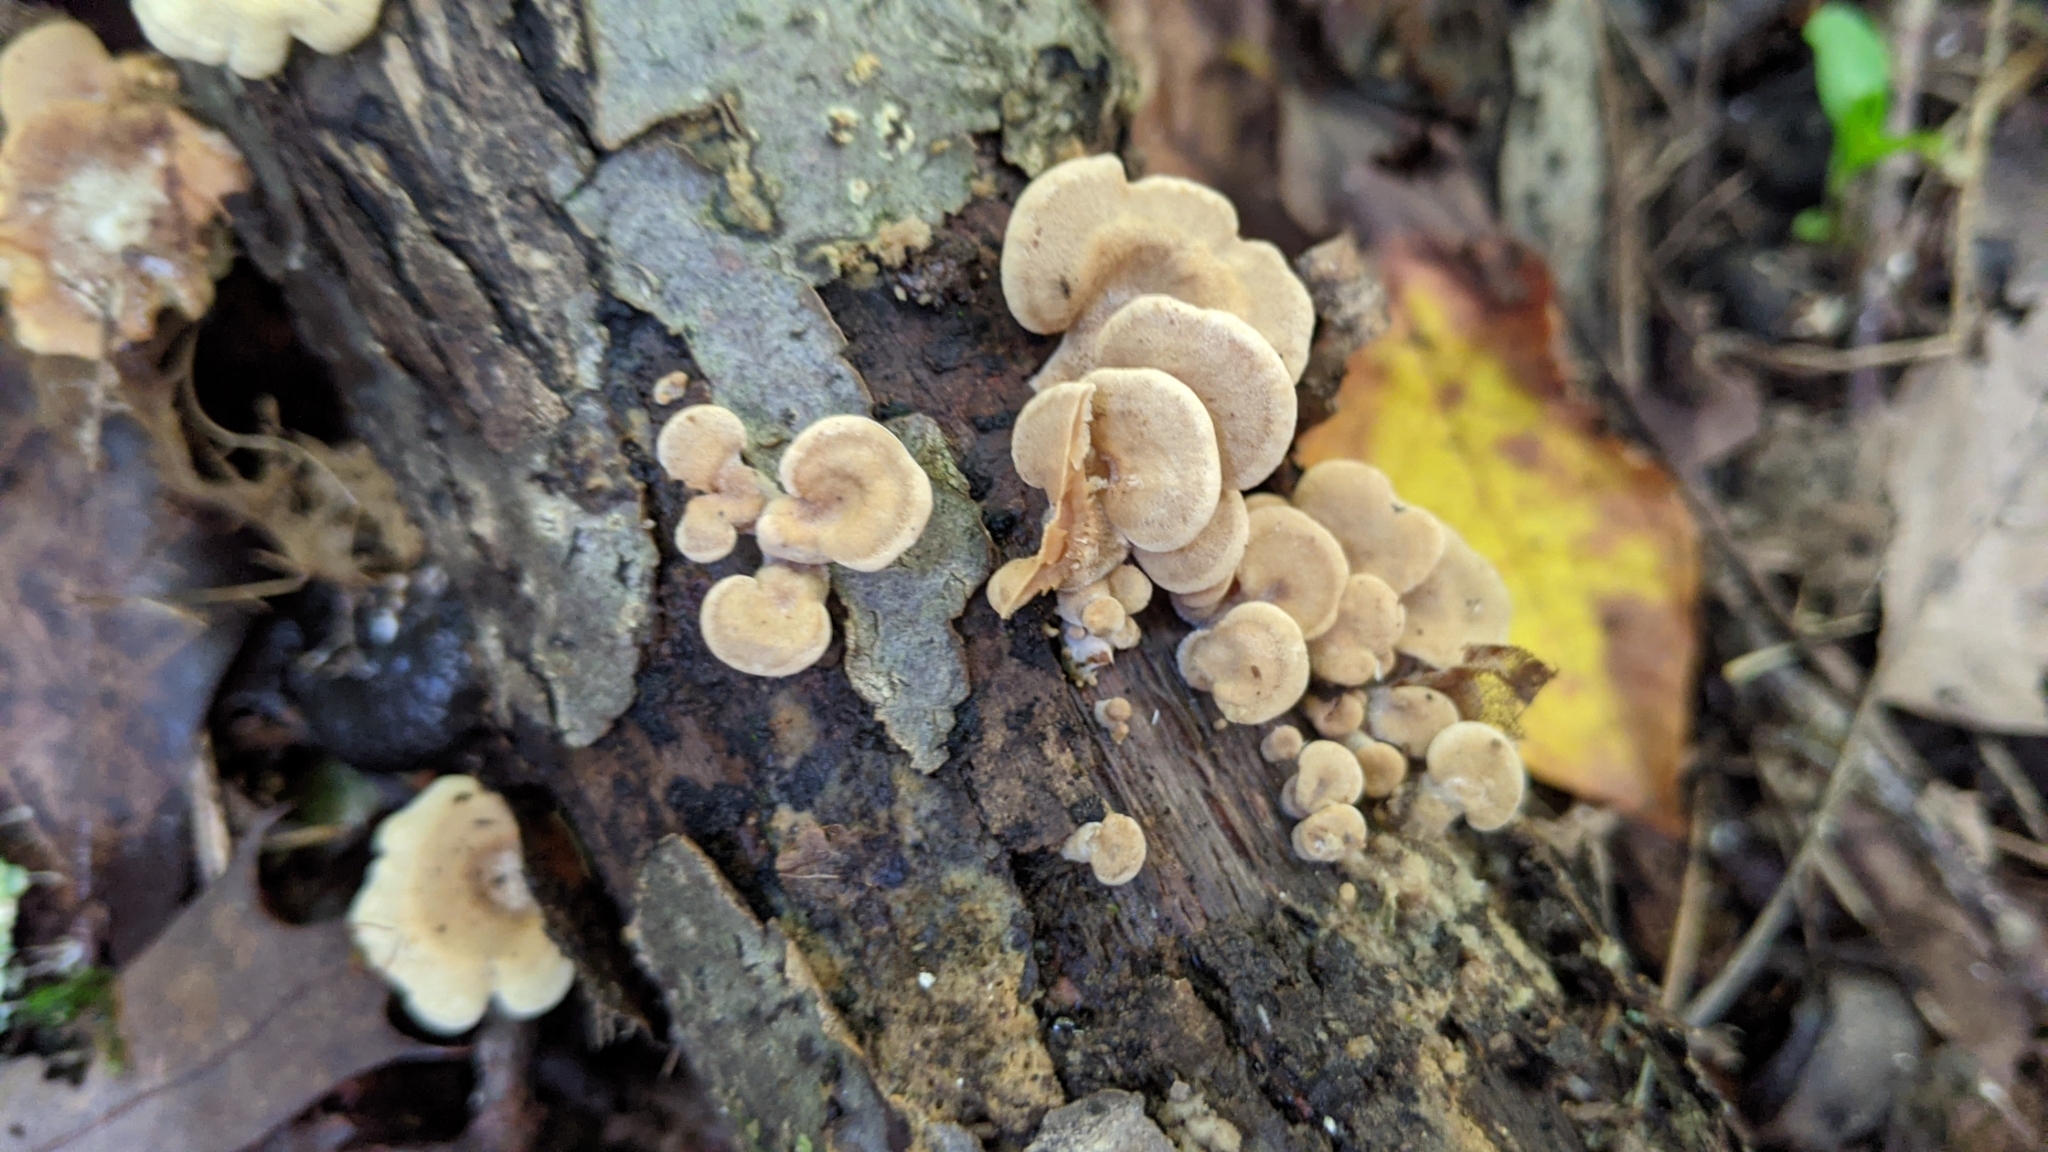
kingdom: Fungi
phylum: Basidiomycota
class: Agaricomycetes
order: Agaricales
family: Mycenaceae
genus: Panellus
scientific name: Panellus stipticus
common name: Bitter oysterling
